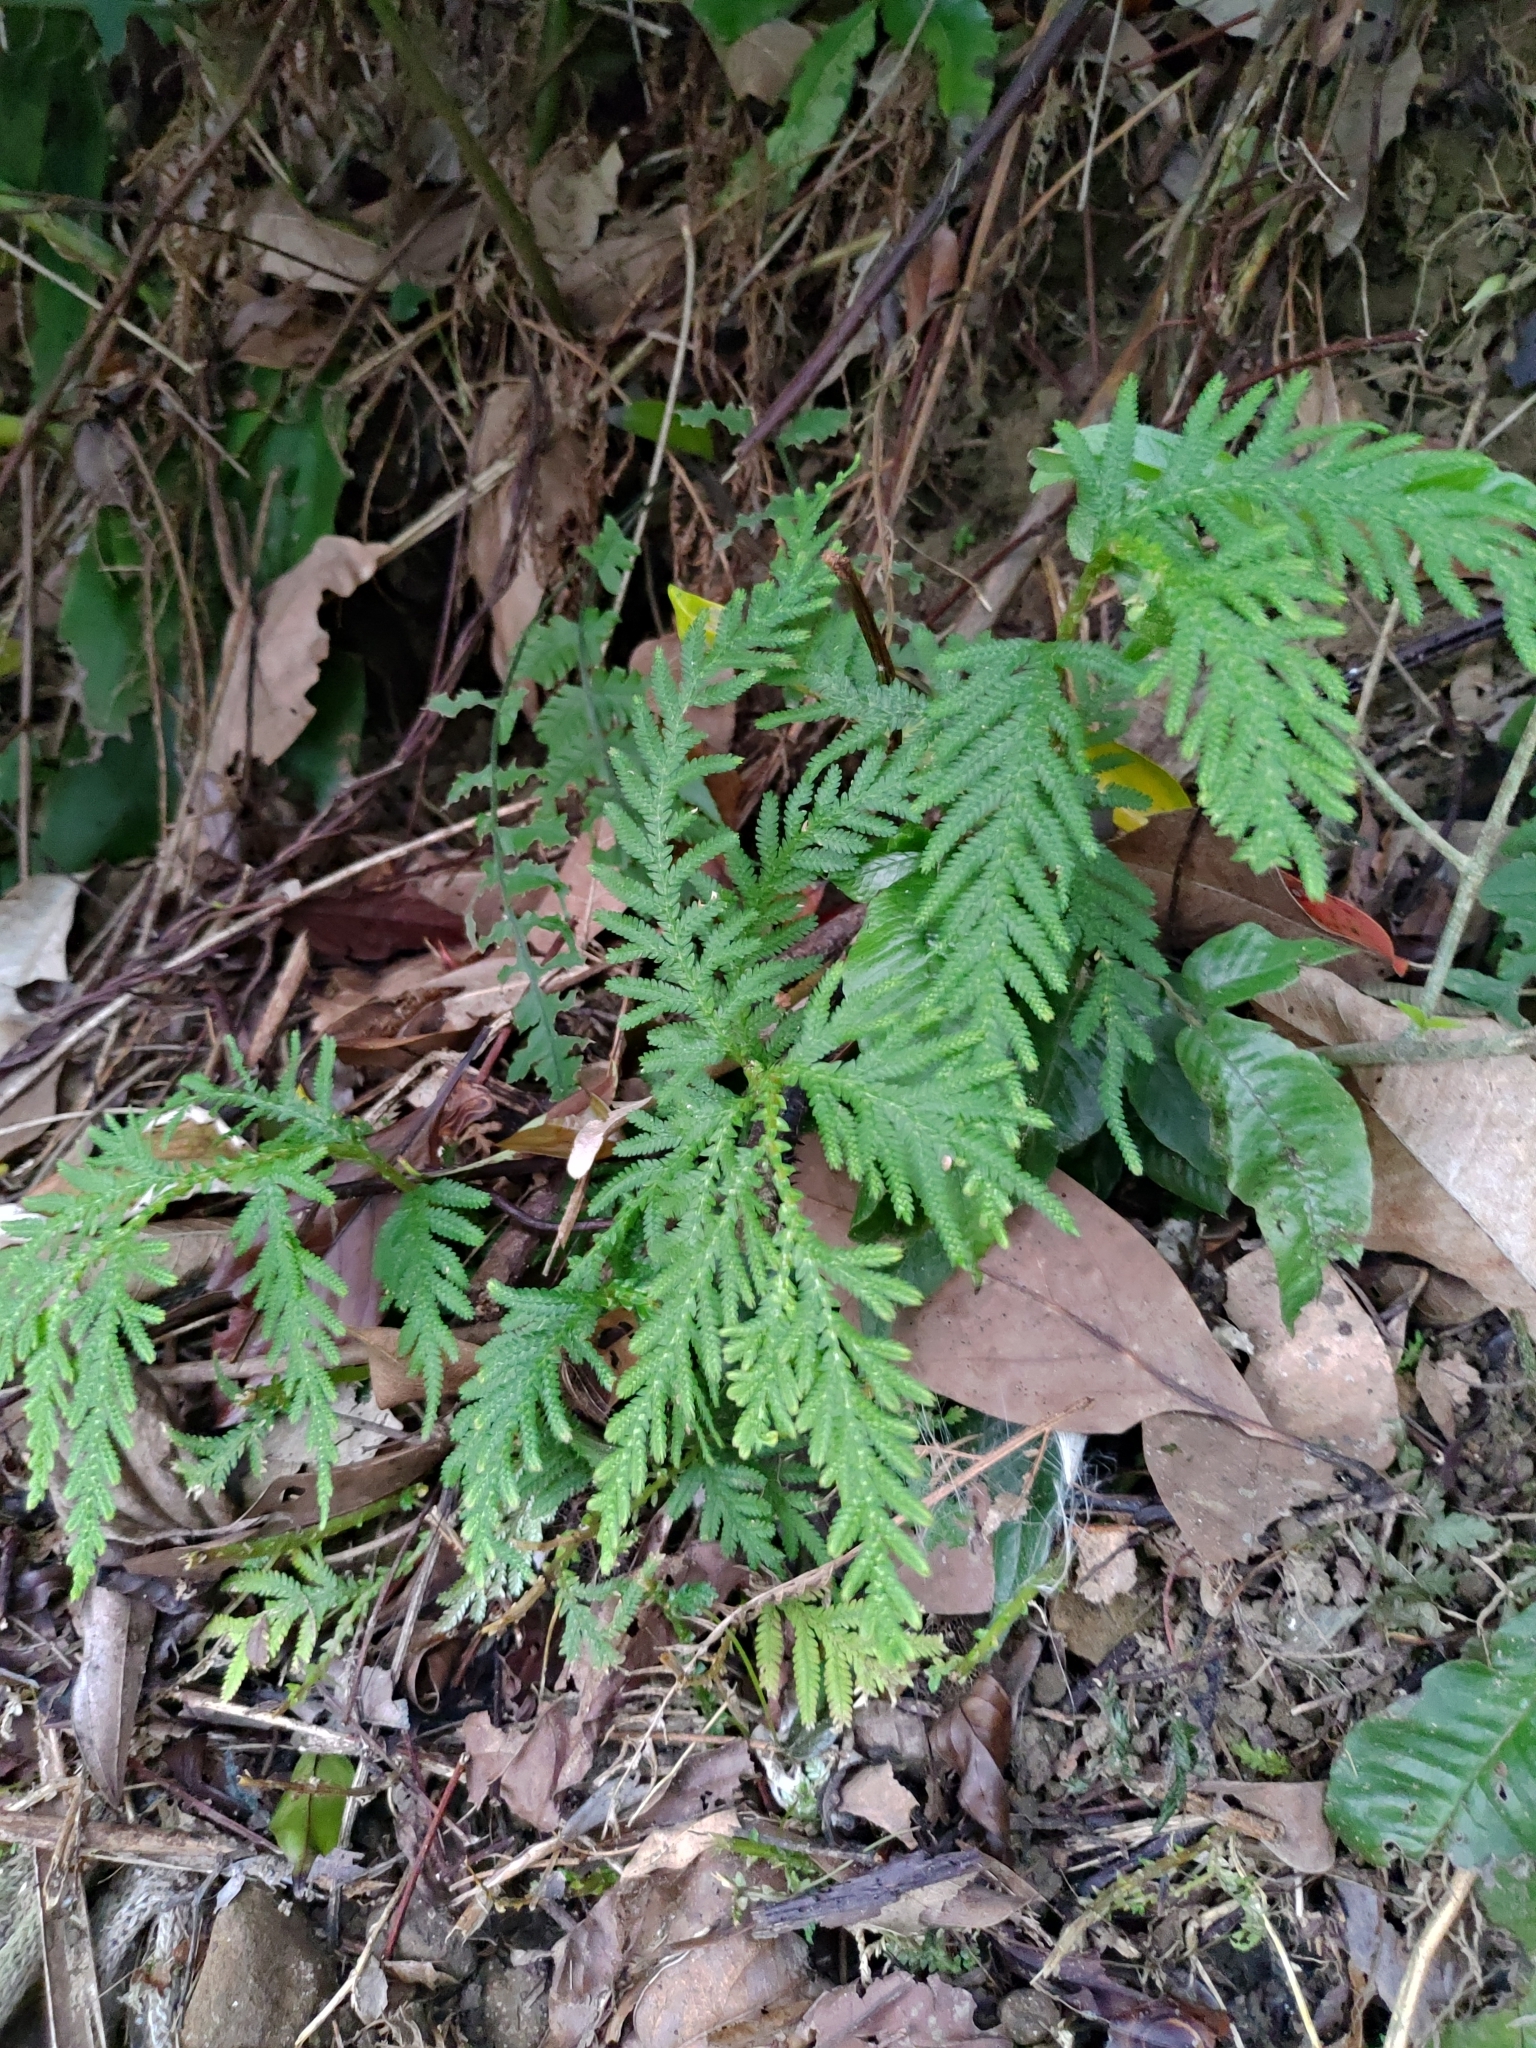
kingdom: Plantae
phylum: Tracheophyta
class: Lycopodiopsida
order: Selaginellales
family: Selaginellaceae
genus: Selaginella
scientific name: Selaginella delicatula
